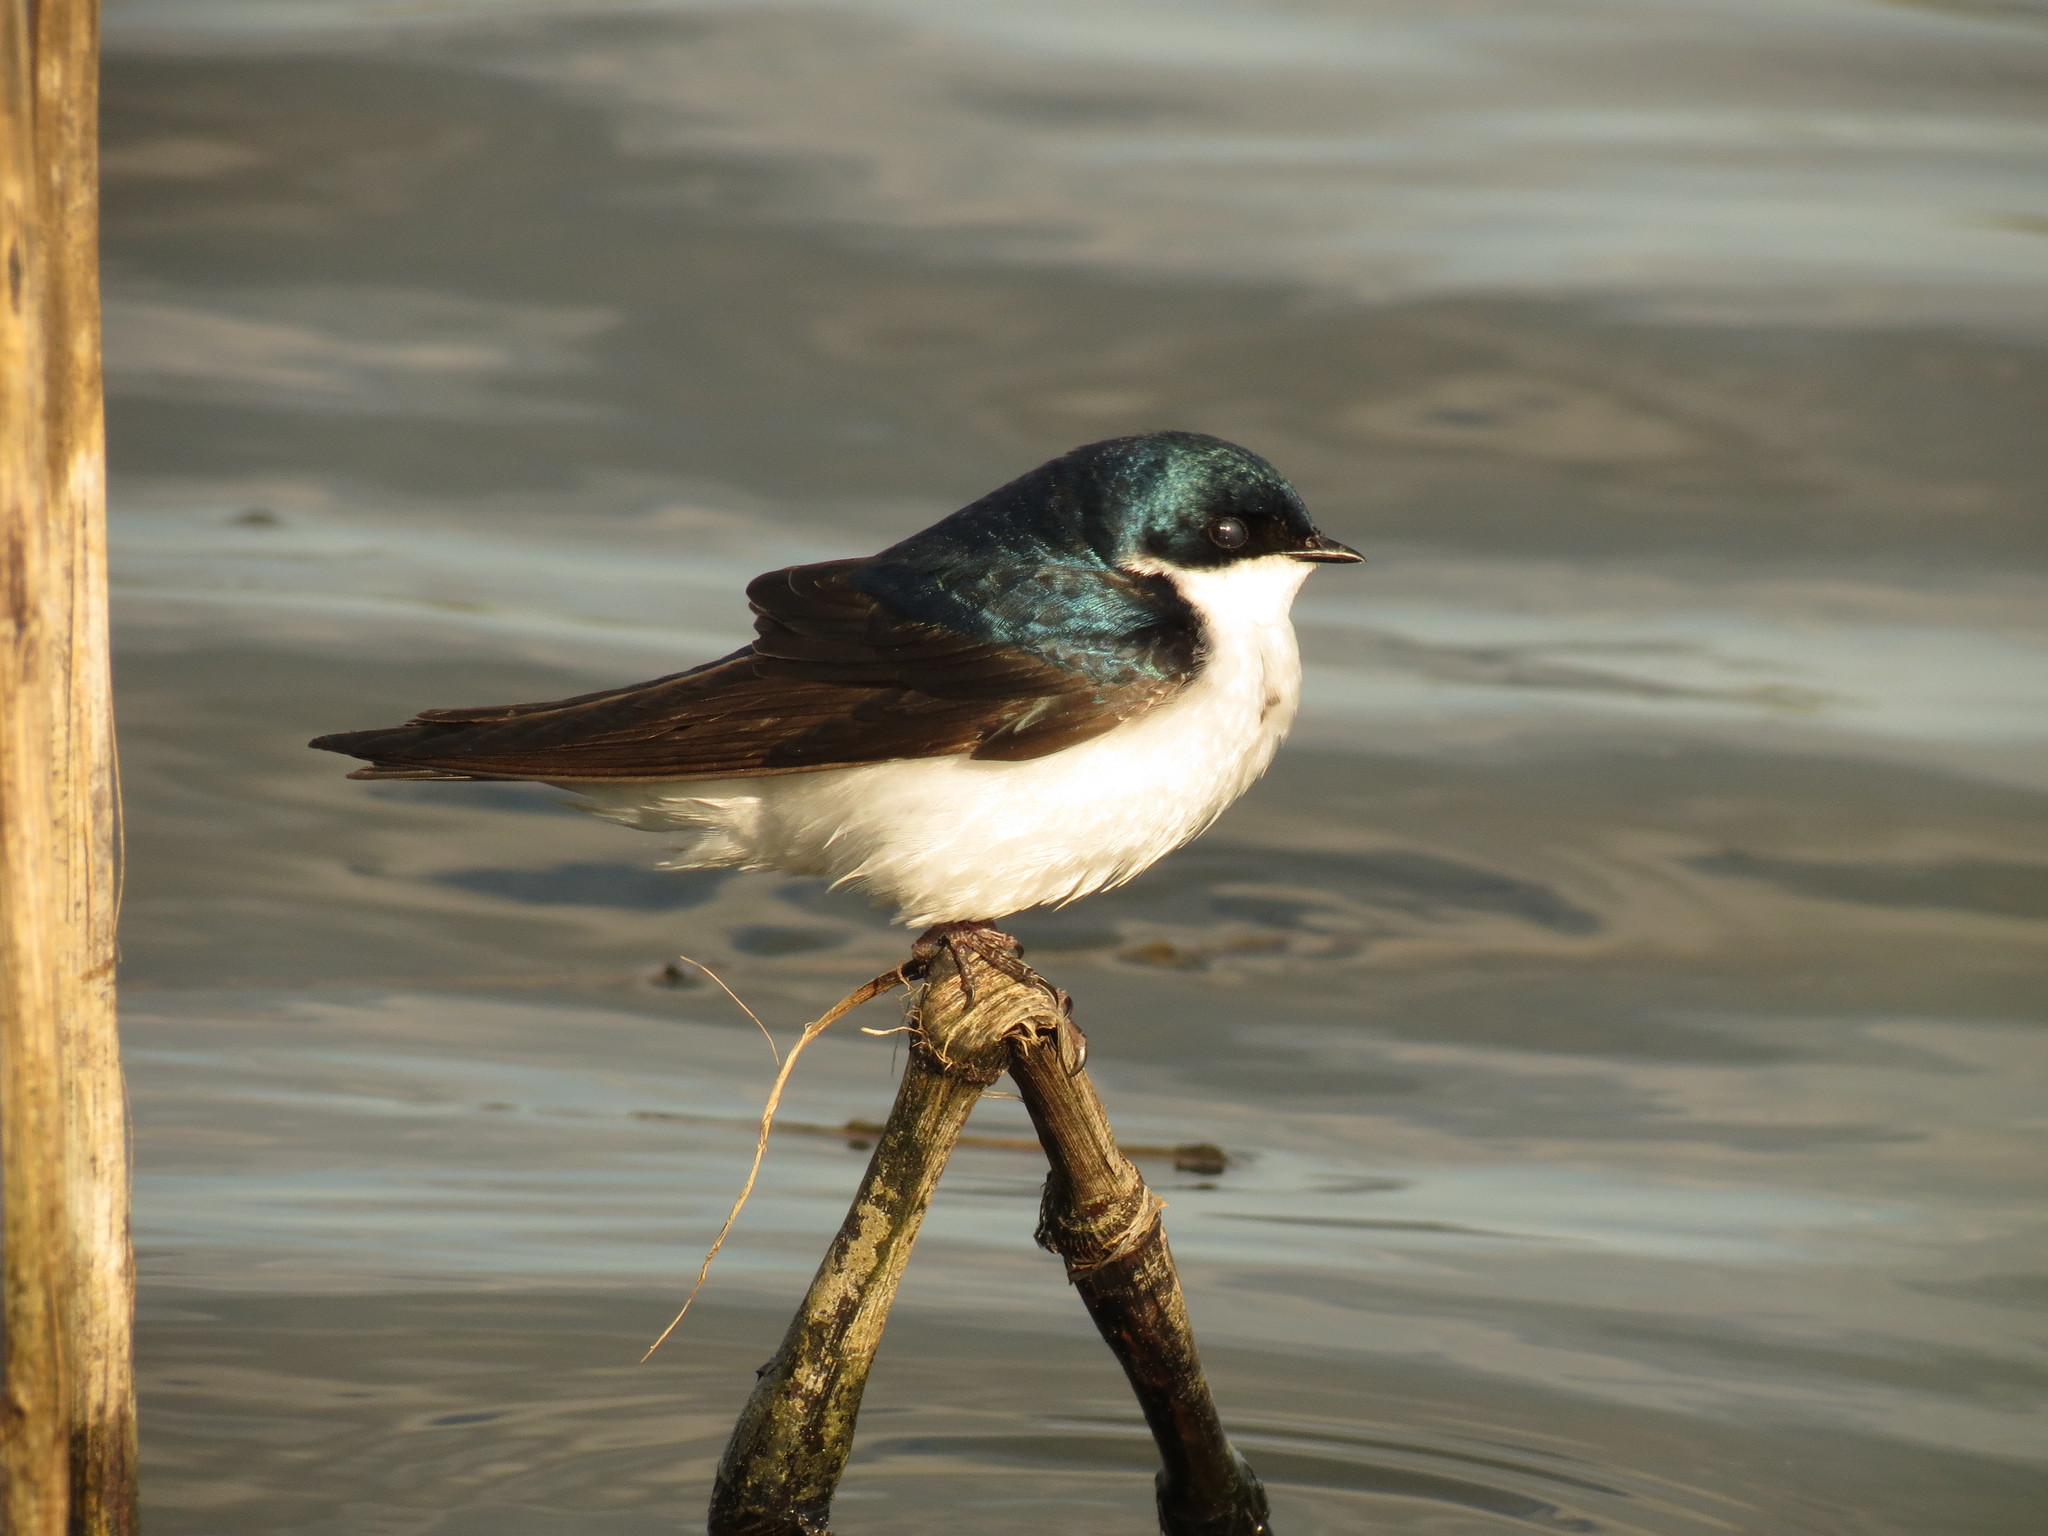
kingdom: Animalia
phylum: Chordata
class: Aves
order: Passeriformes
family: Hirundinidae
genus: Tachycineta
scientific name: Tachycineta bicolor
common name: Tree swallow
